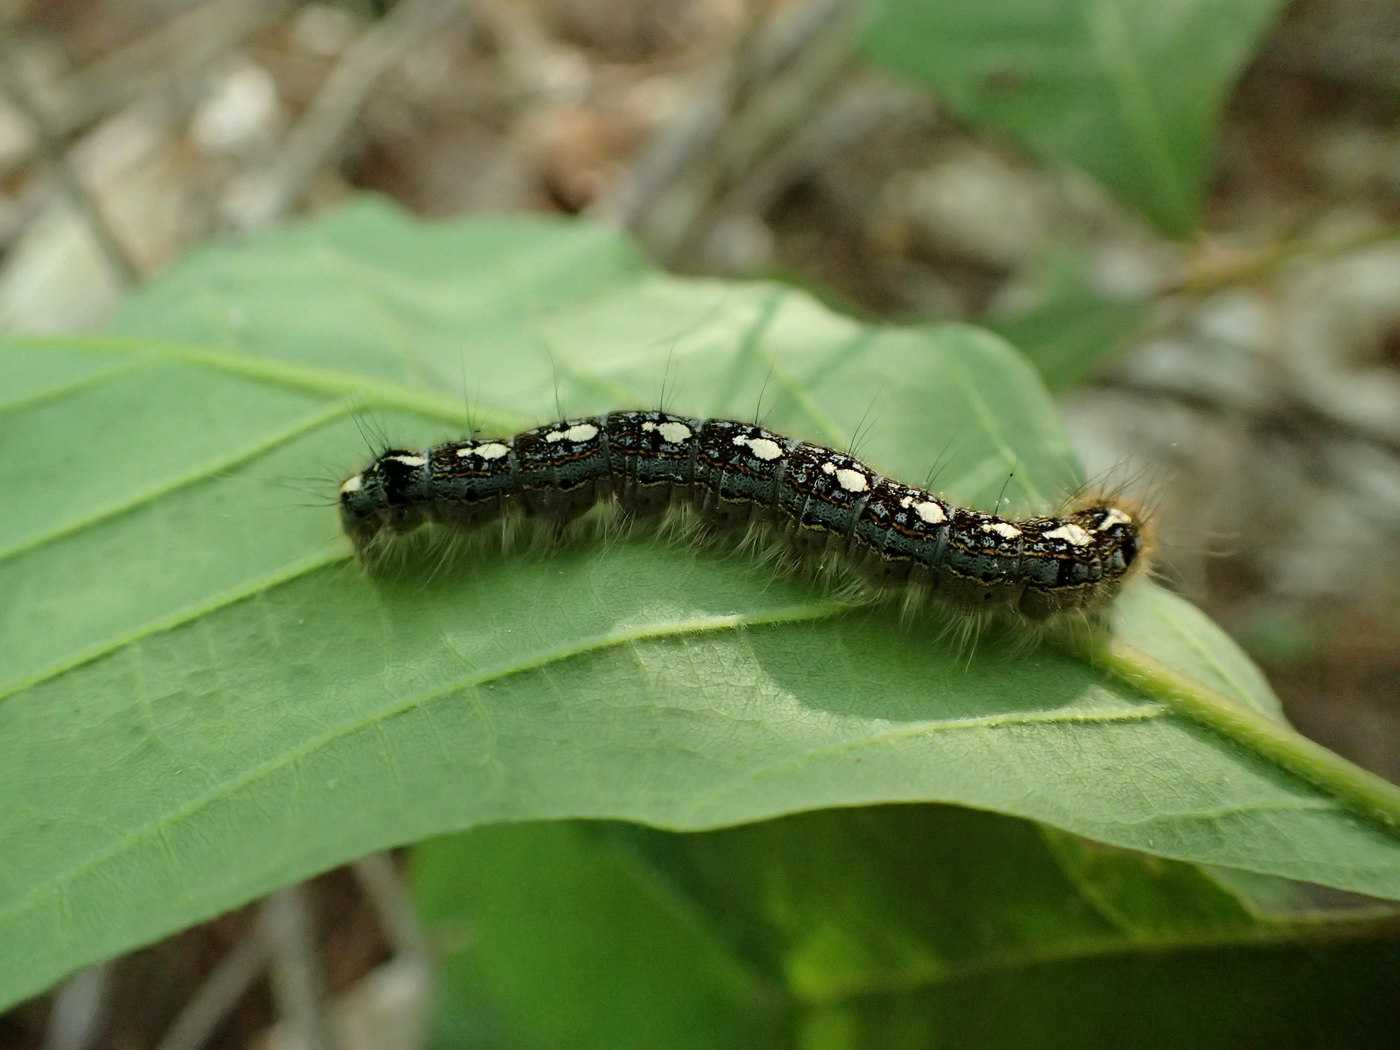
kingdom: Animalia
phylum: Arthropoda
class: Insecta
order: Lepidoptera
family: Lasiocampidae
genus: Malacosoma
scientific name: Malacosoma disstria
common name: Forest tent caterpillar
